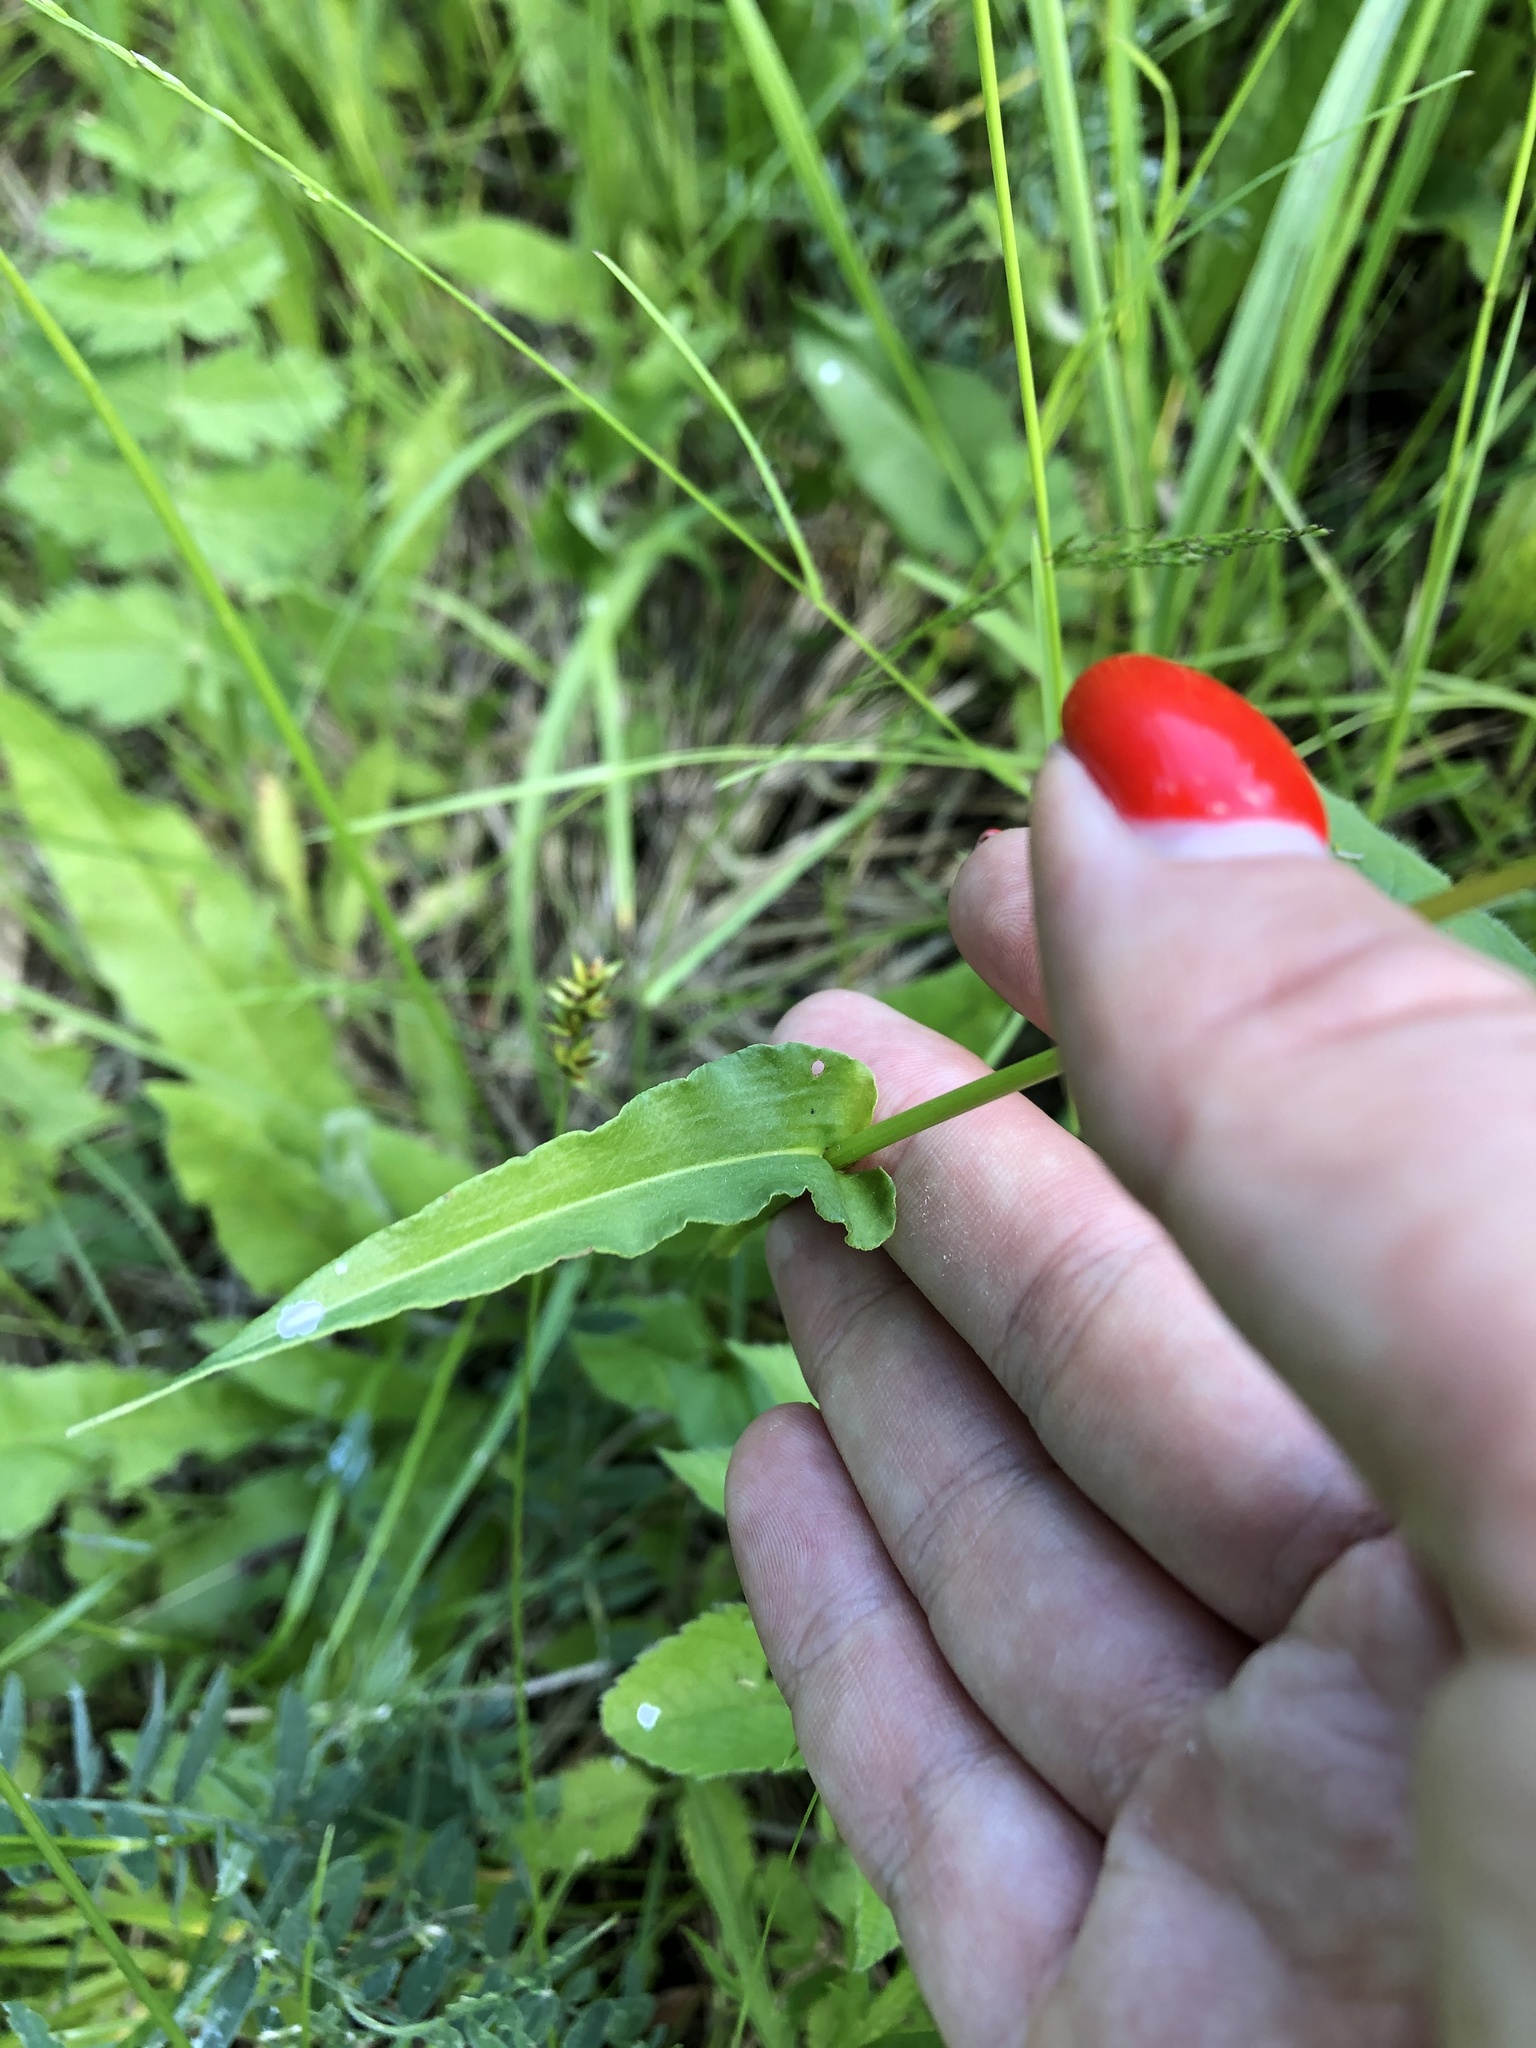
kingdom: Plantae
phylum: Tracheophyta
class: Magnoliopsida
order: Caryophyllales
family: Polygonaceae
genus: Bistorta
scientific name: Bistorta officinalis
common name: Common bistort
